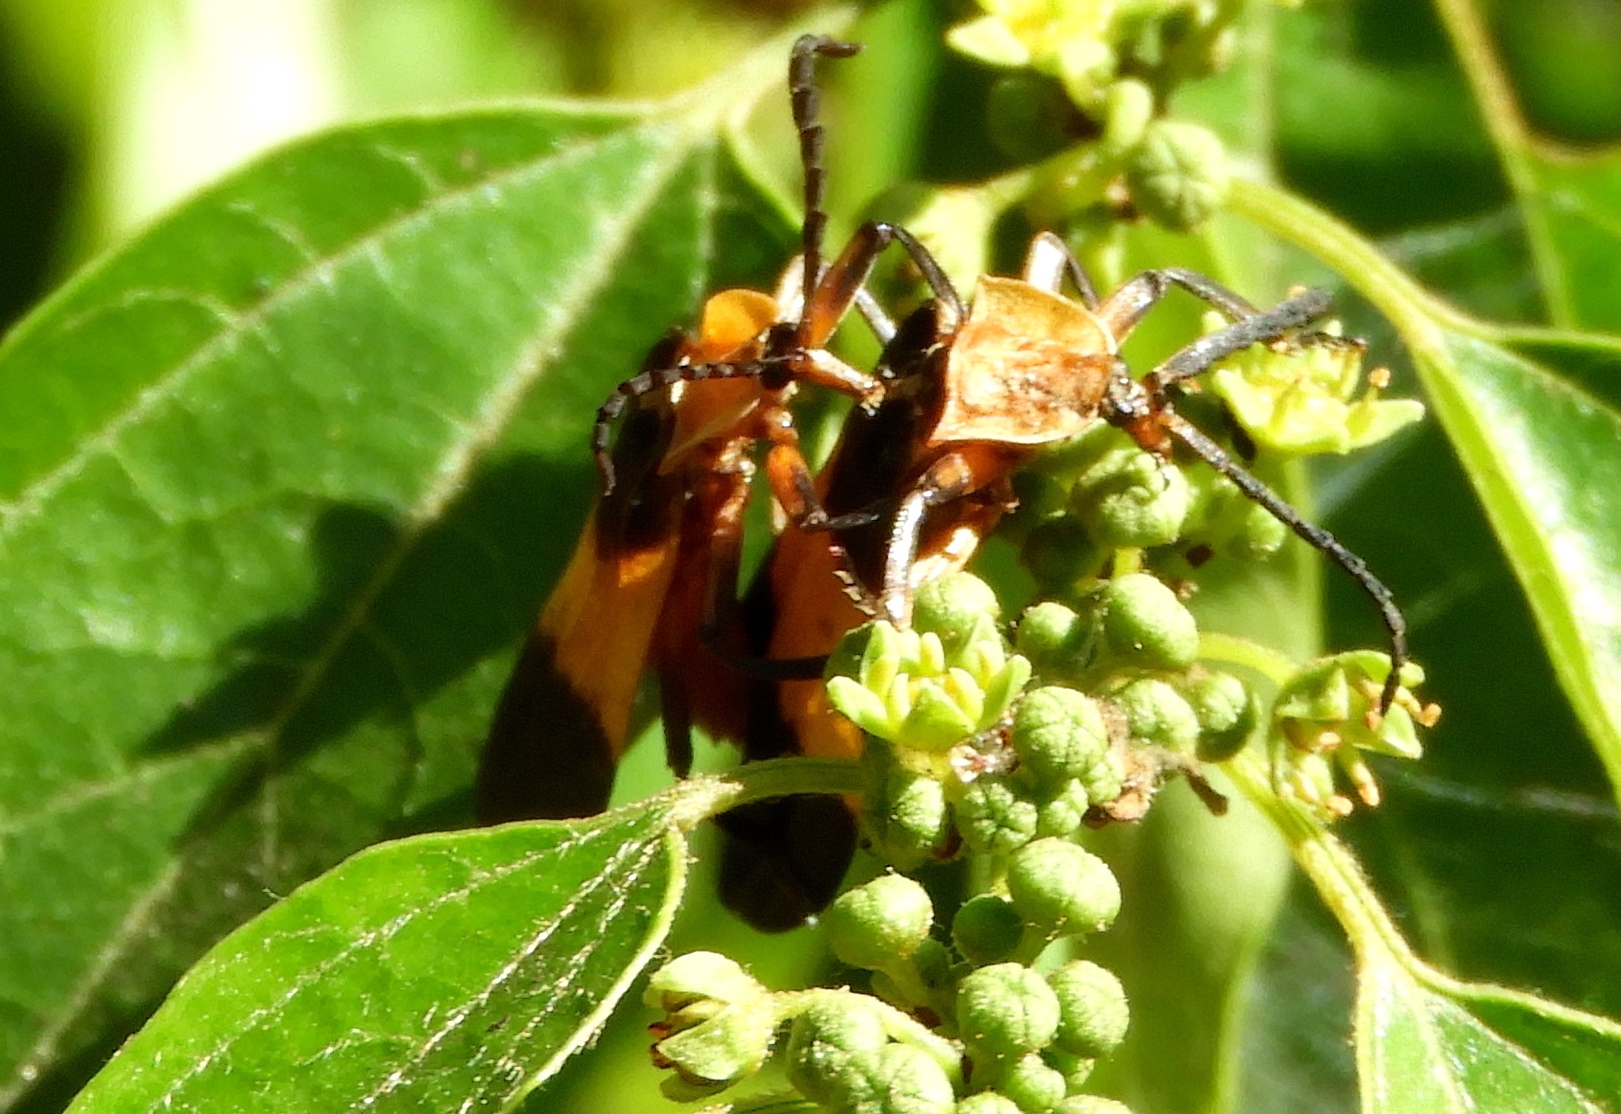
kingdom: Animalia
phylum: Arthropoda
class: Insecta
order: Coleoptera
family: Lycidae
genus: Lycus
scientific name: Lycus
